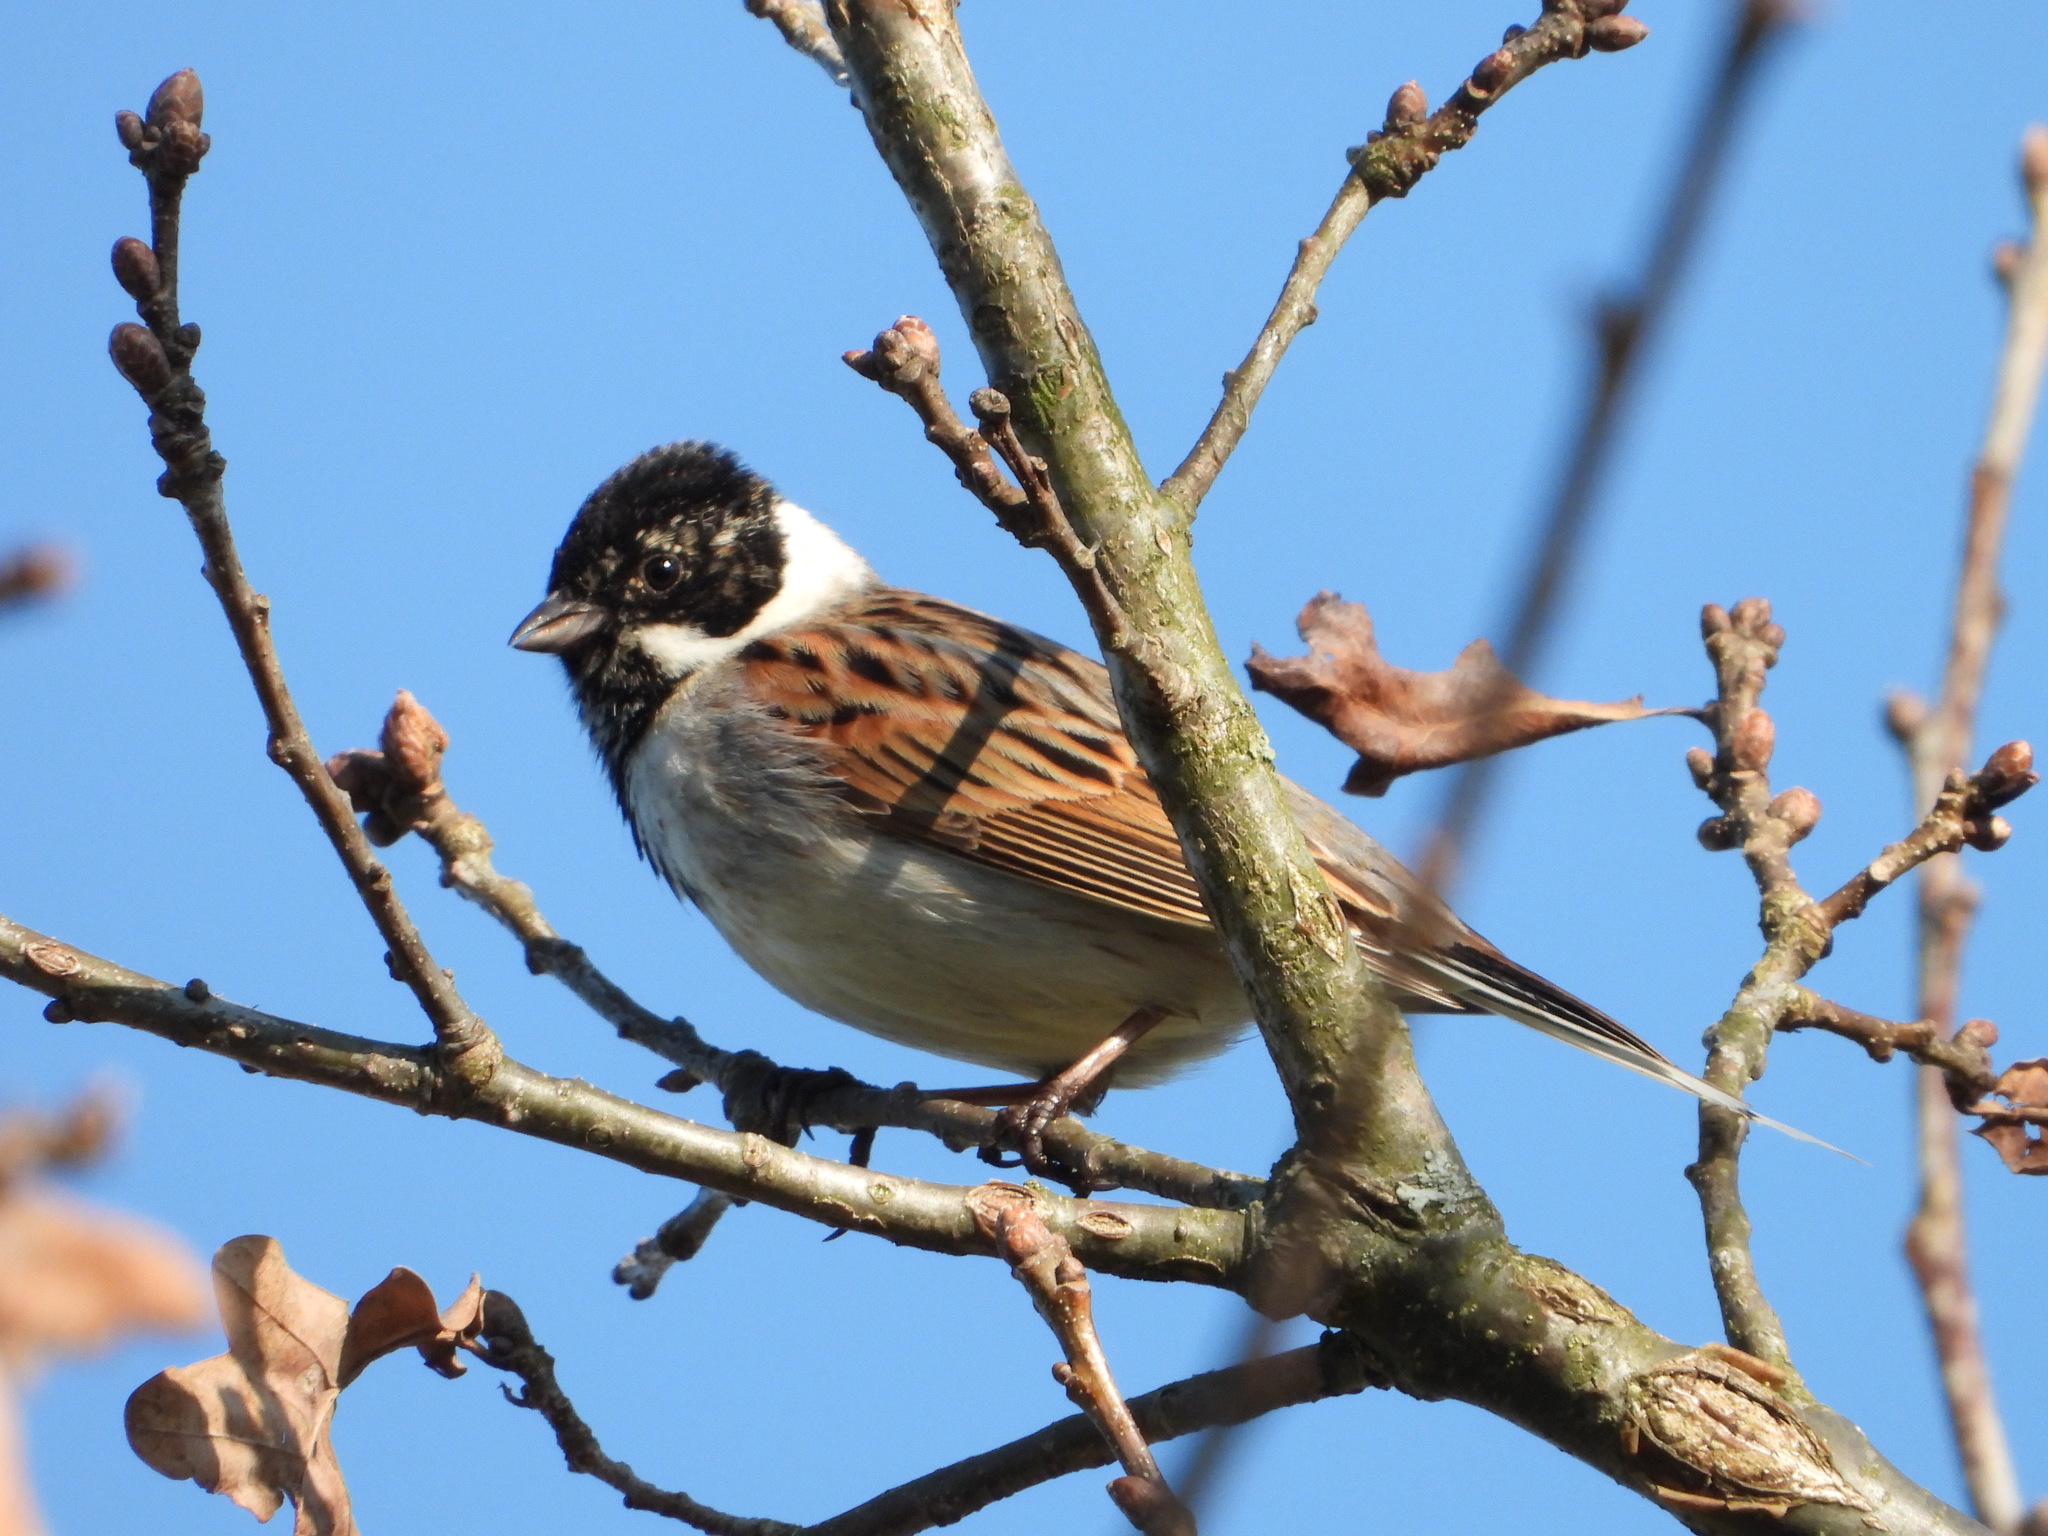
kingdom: Animalia
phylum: Chordata
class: Aves
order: Passeriformes
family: Emberizidae
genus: Emberiza
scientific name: Emberiza schoeniclus
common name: Reed bunting
